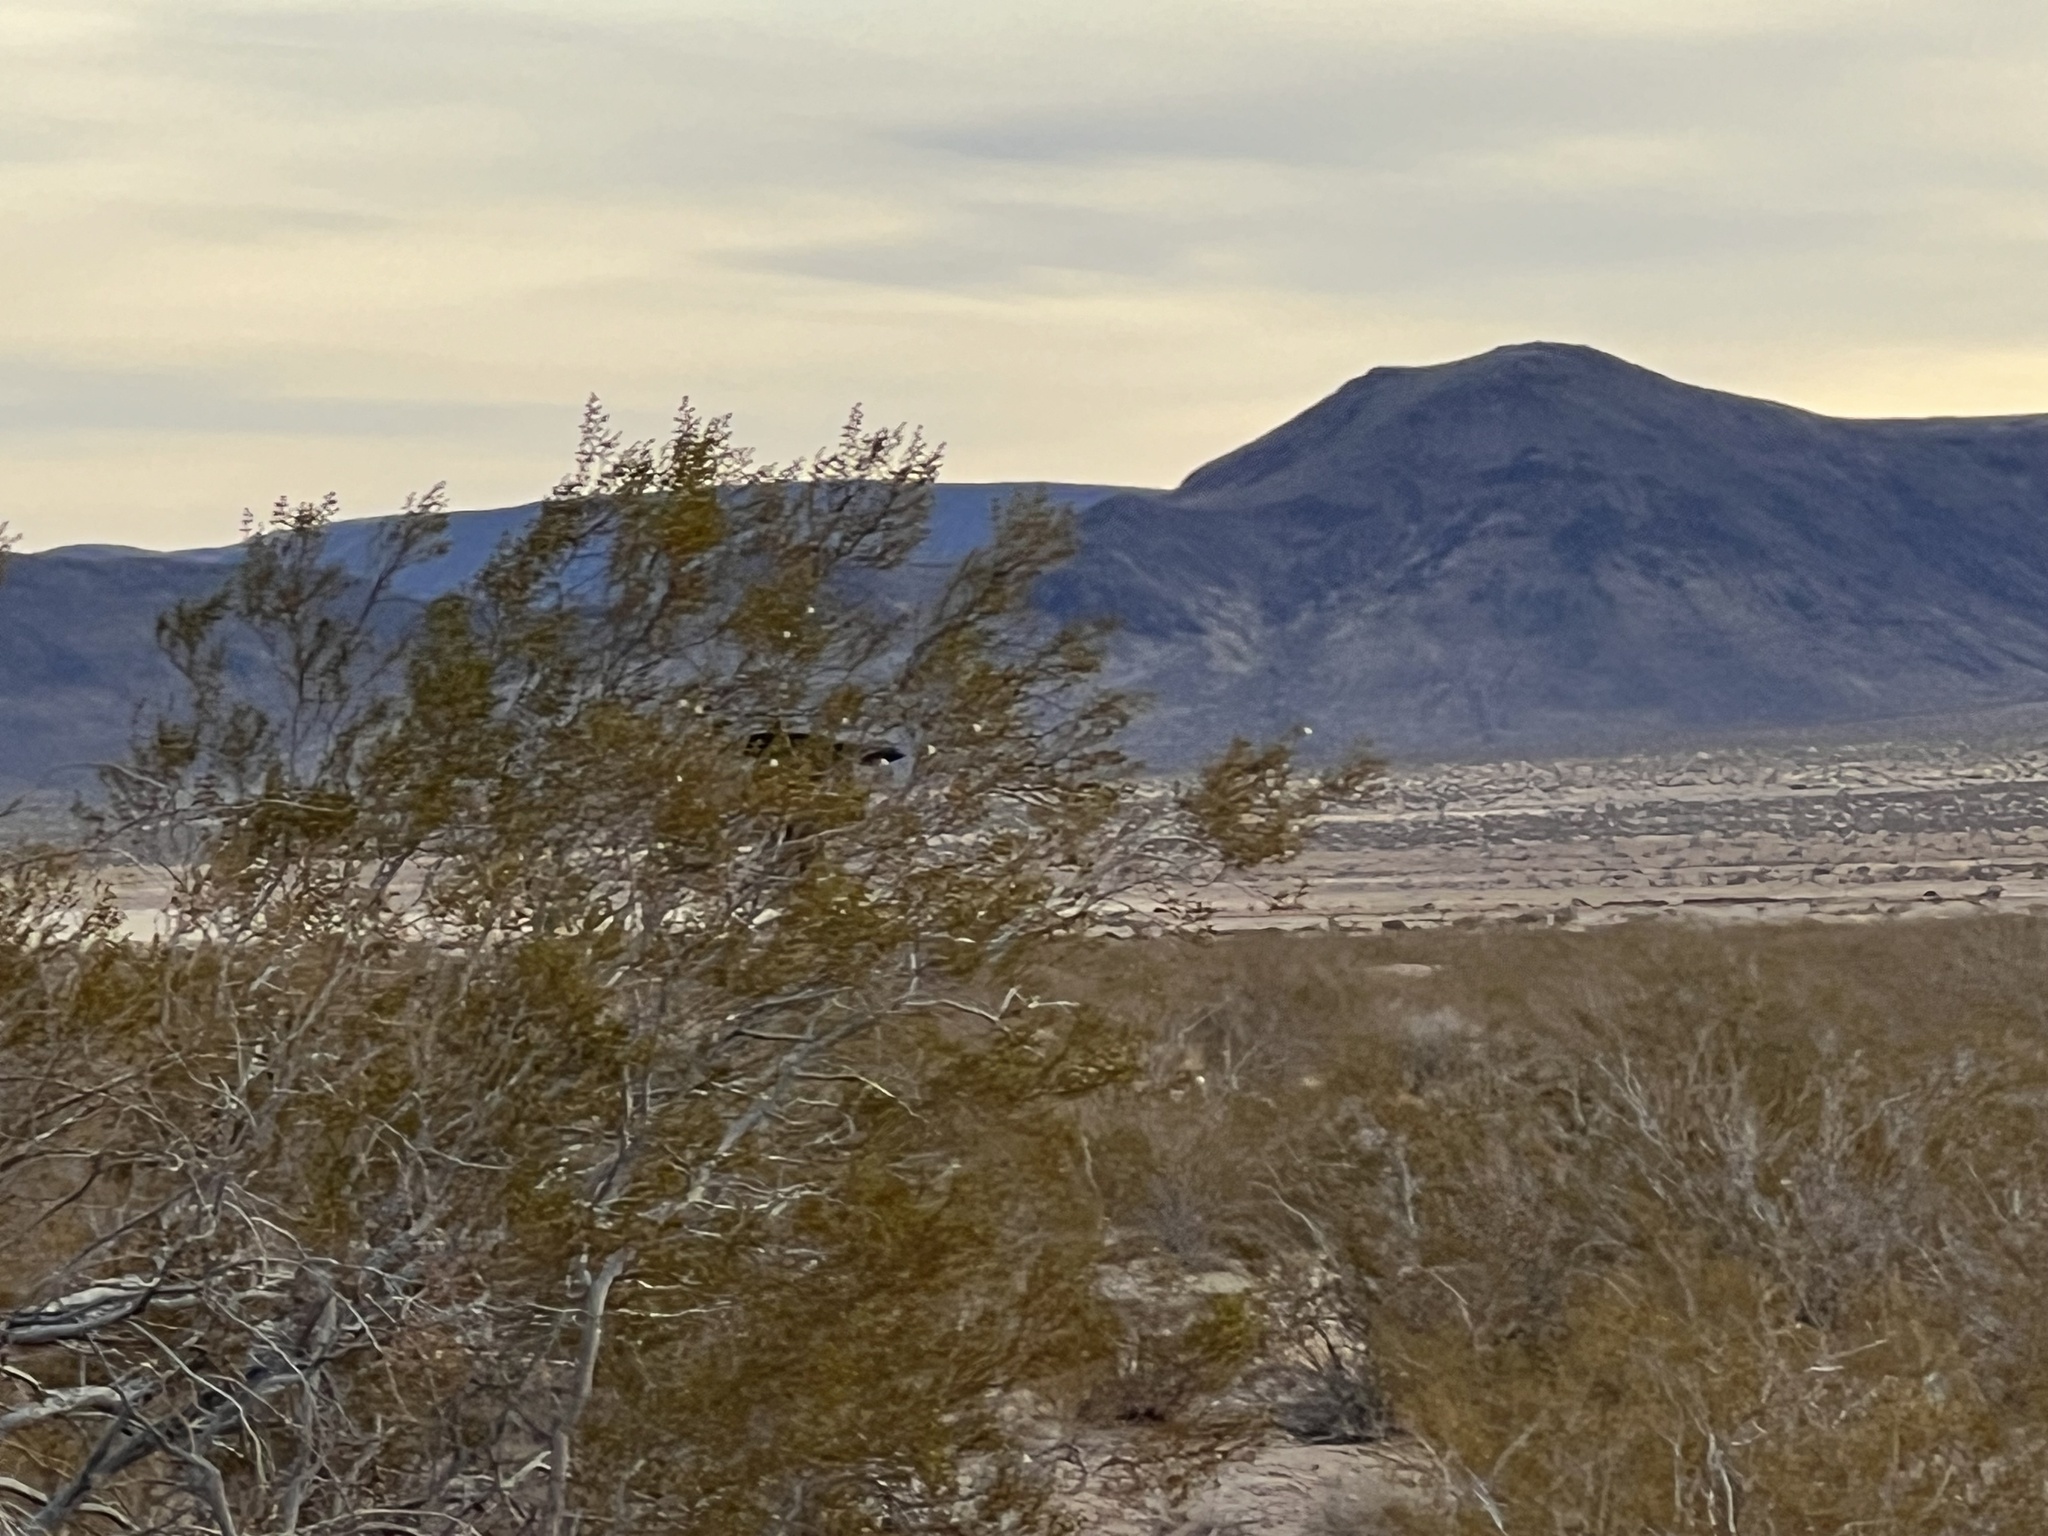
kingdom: Plantae
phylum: Tracheophyta
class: Magnoliopsida
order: Zygophyllales
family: Zygophyllaceae
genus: Larrea
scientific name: Larrea tridentata
